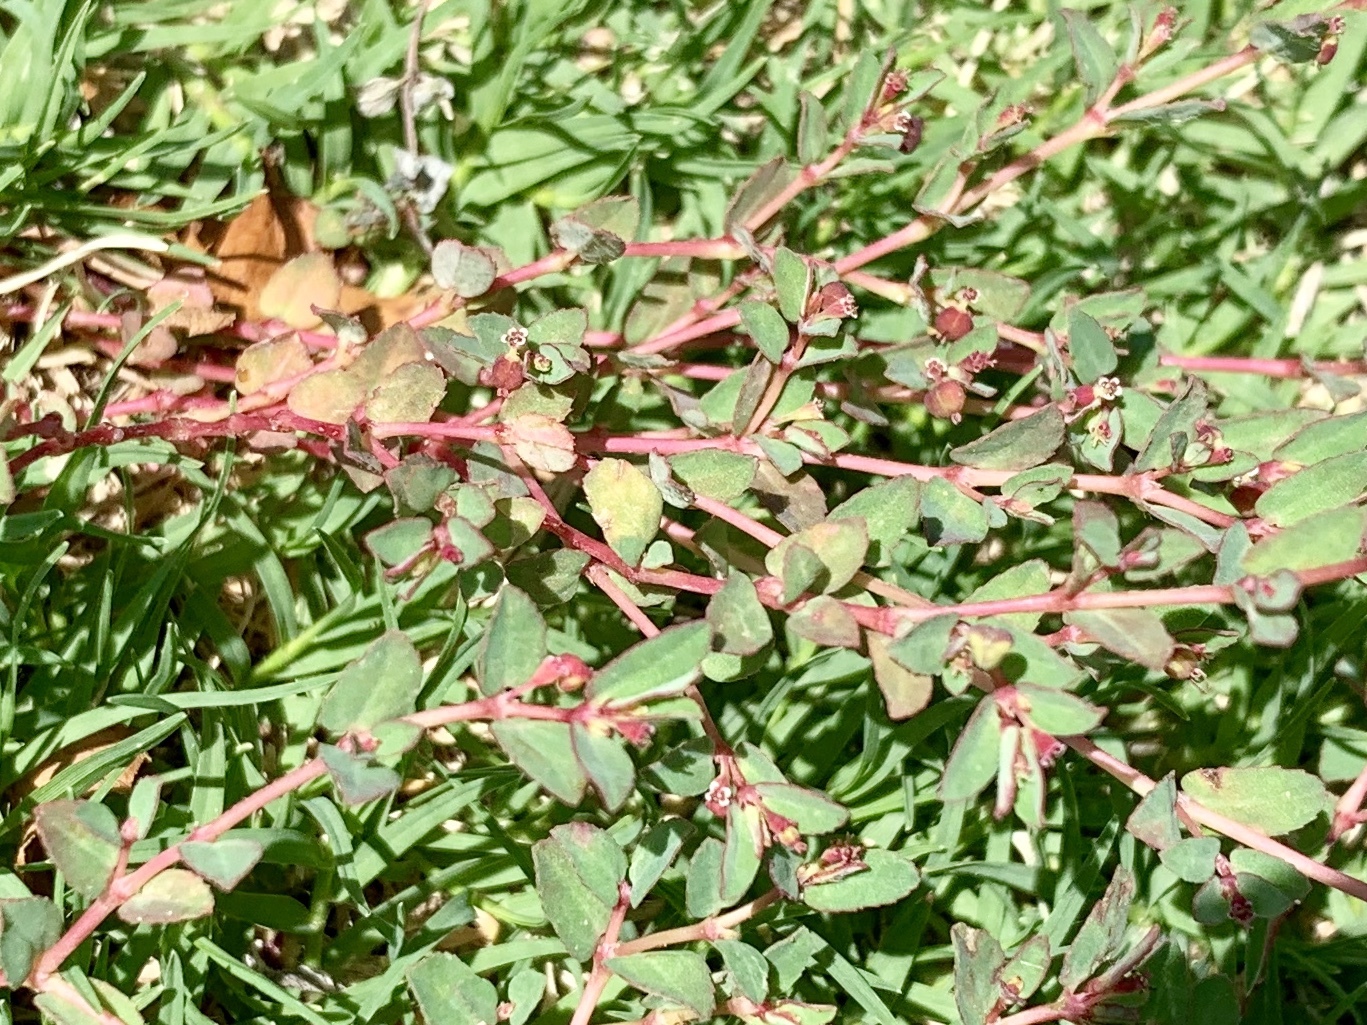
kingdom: Plantae
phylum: Tracheophyta
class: Magnoliopsida
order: Malpighiales
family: Euphorbiaceae
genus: Euphorbia
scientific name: Euphorbia vermiculata
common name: Hairy spurge
